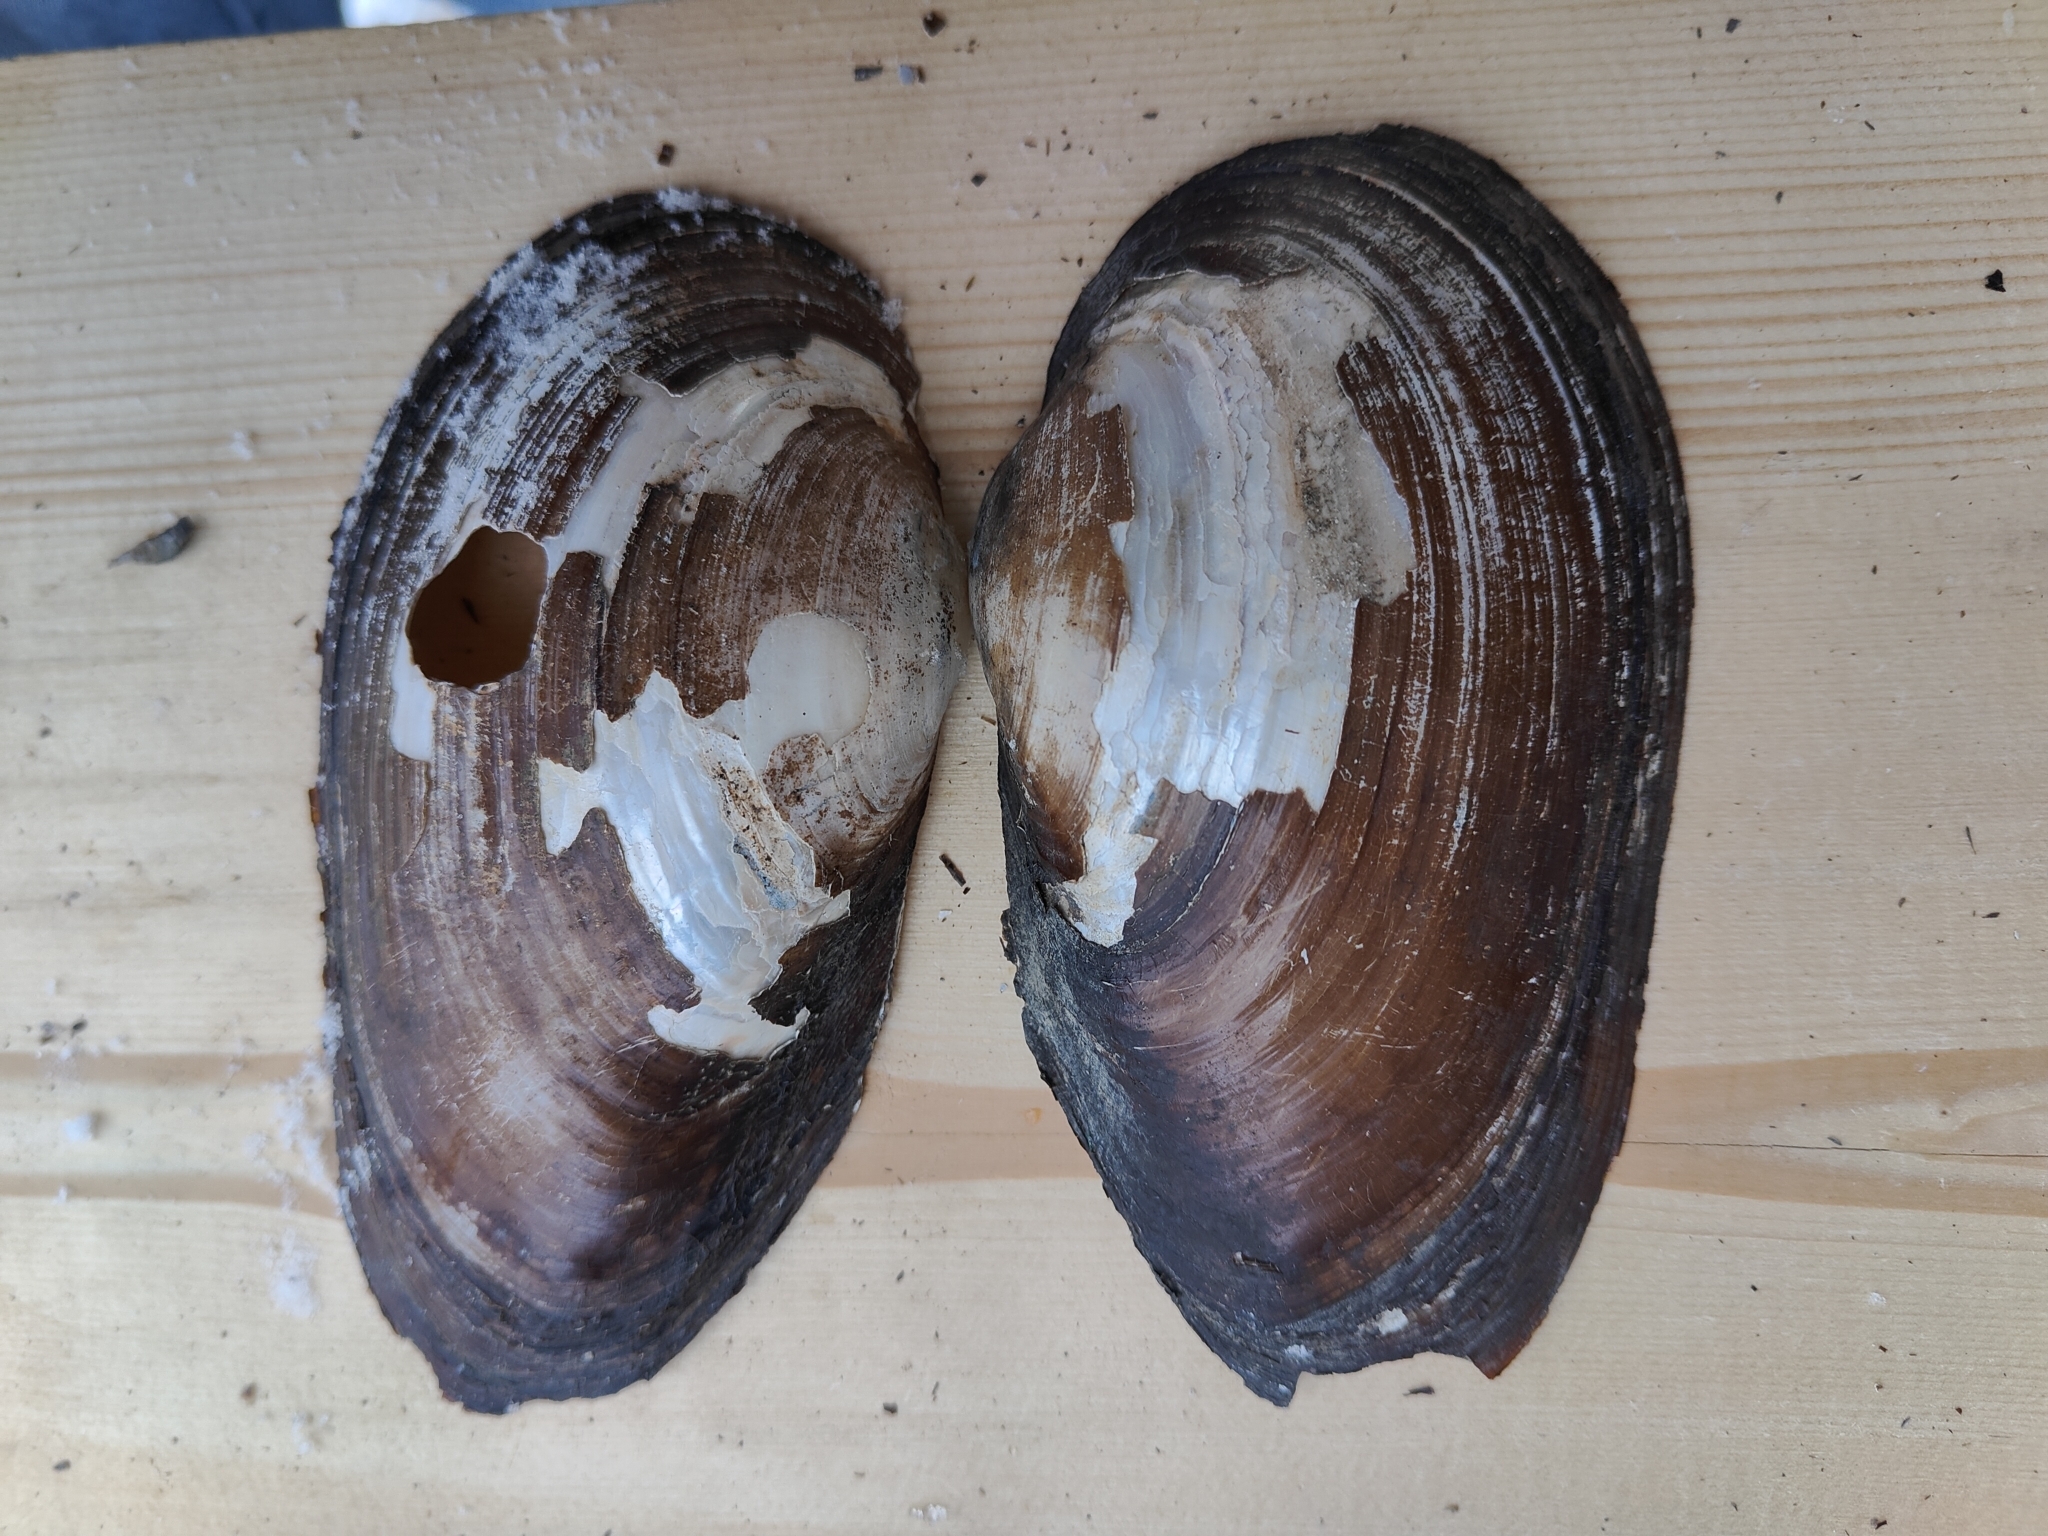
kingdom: Animalia
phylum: Mollusca
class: Bivalvia
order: Unionida
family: Unionidae
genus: Pyganodon
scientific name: Pyganodon grandis
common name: Giant floater
